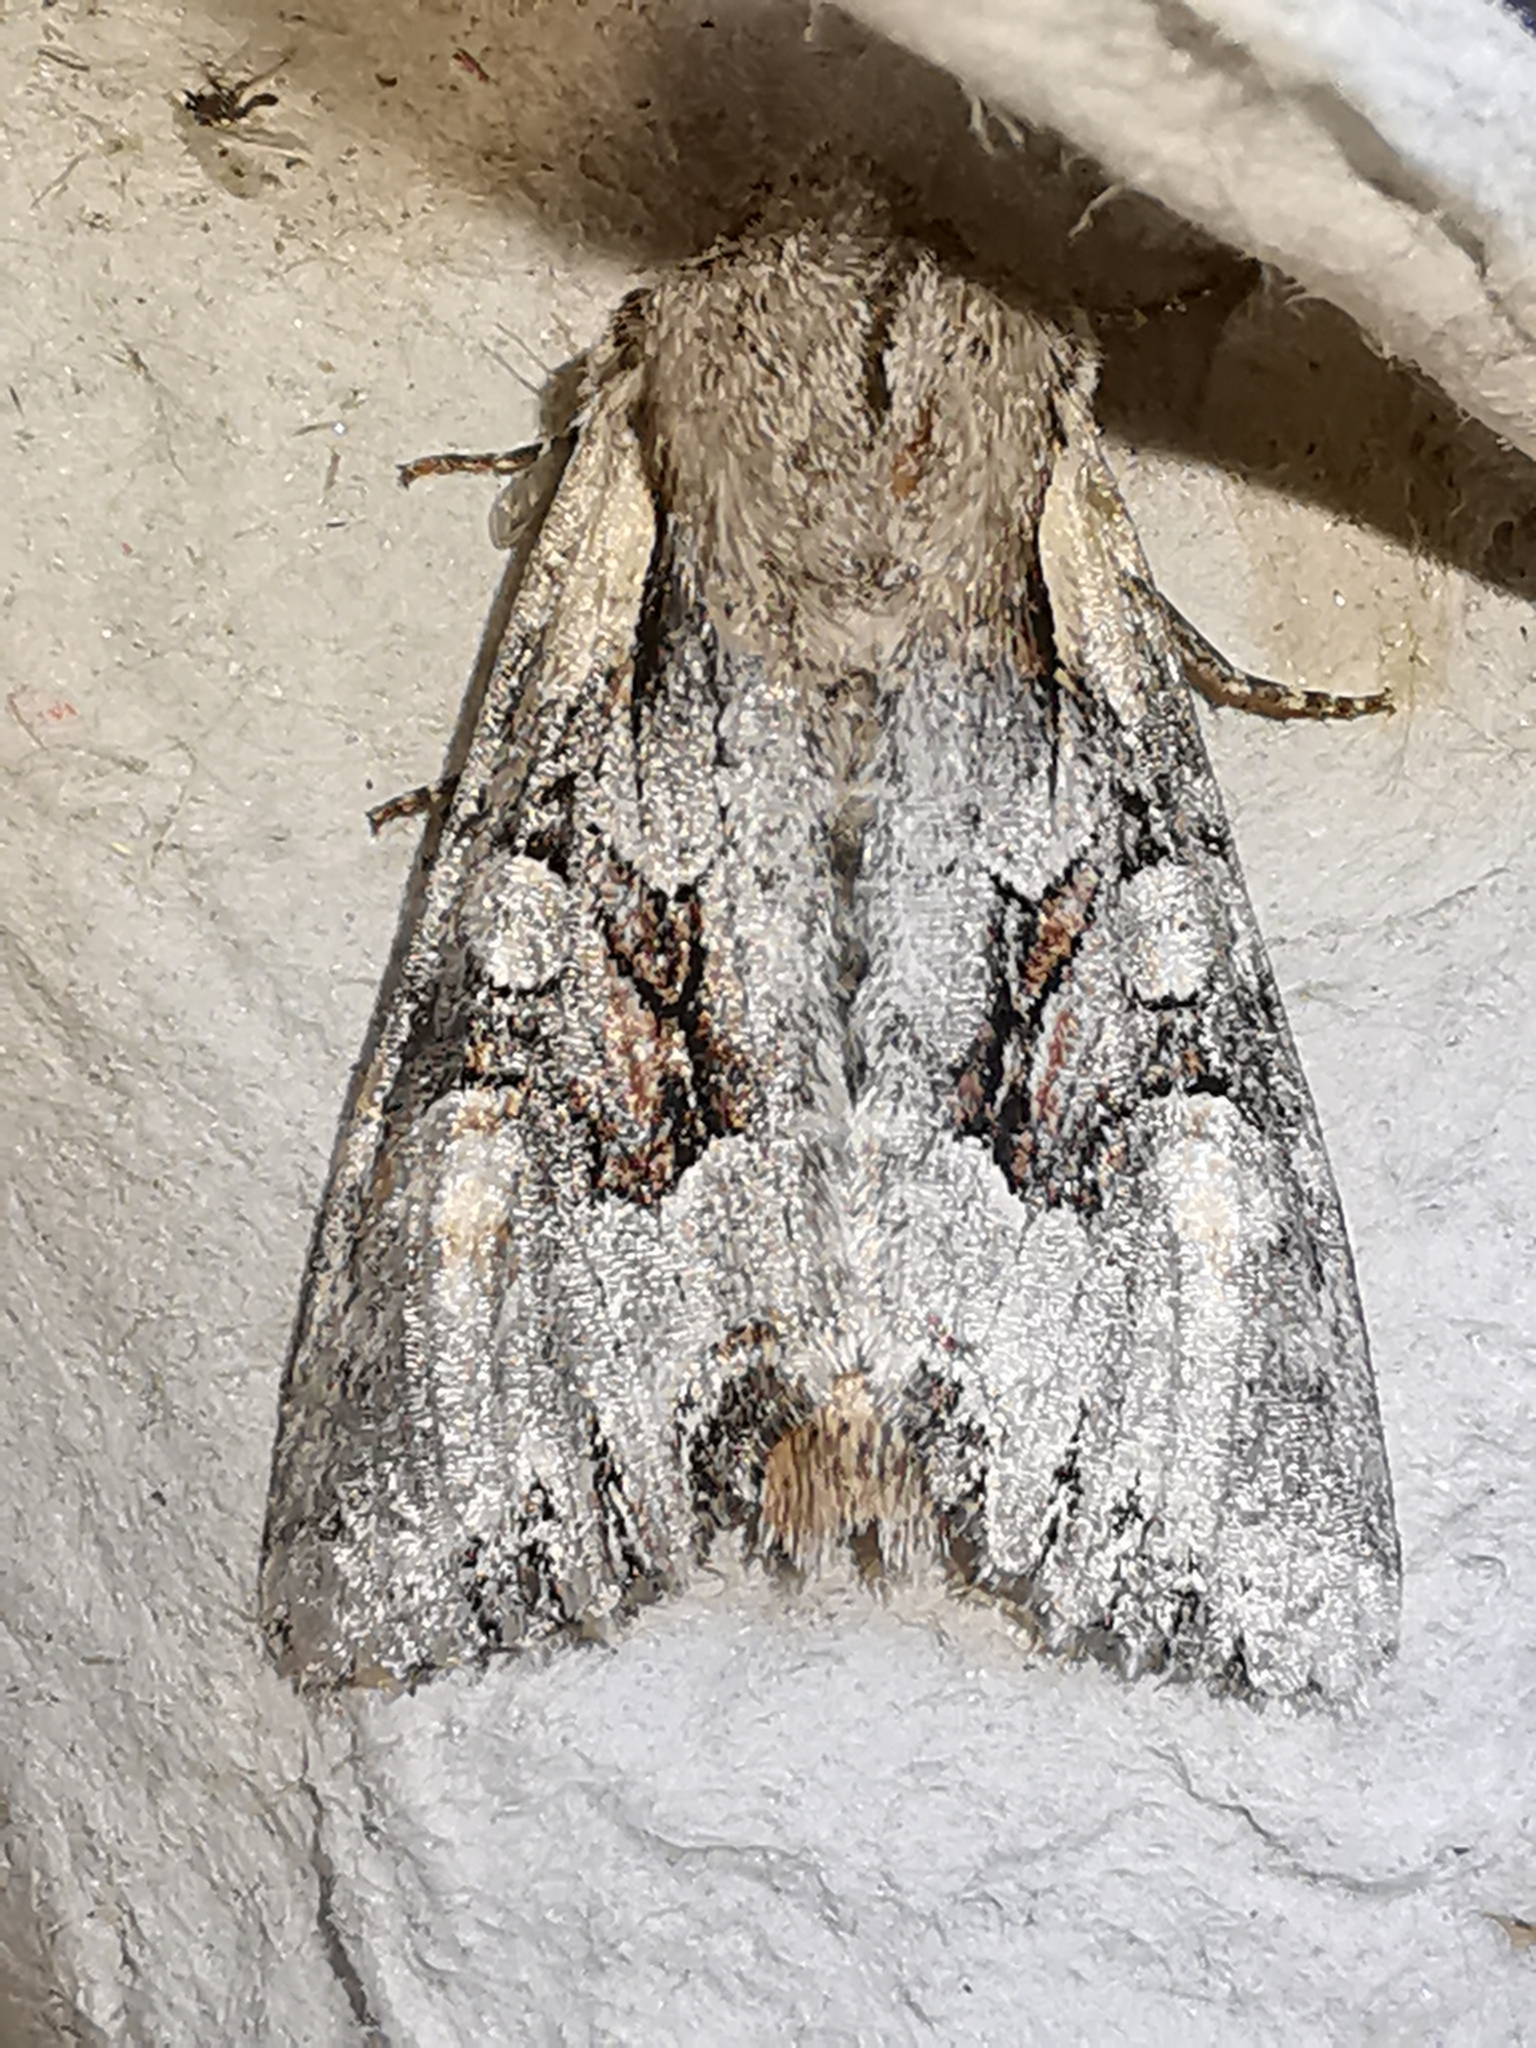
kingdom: Animalia
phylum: Arthropoda
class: Insecta
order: Lepidoptera
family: Noctuidae
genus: Lacanobia
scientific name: Lacanobia w-latinum
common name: Light brocade
